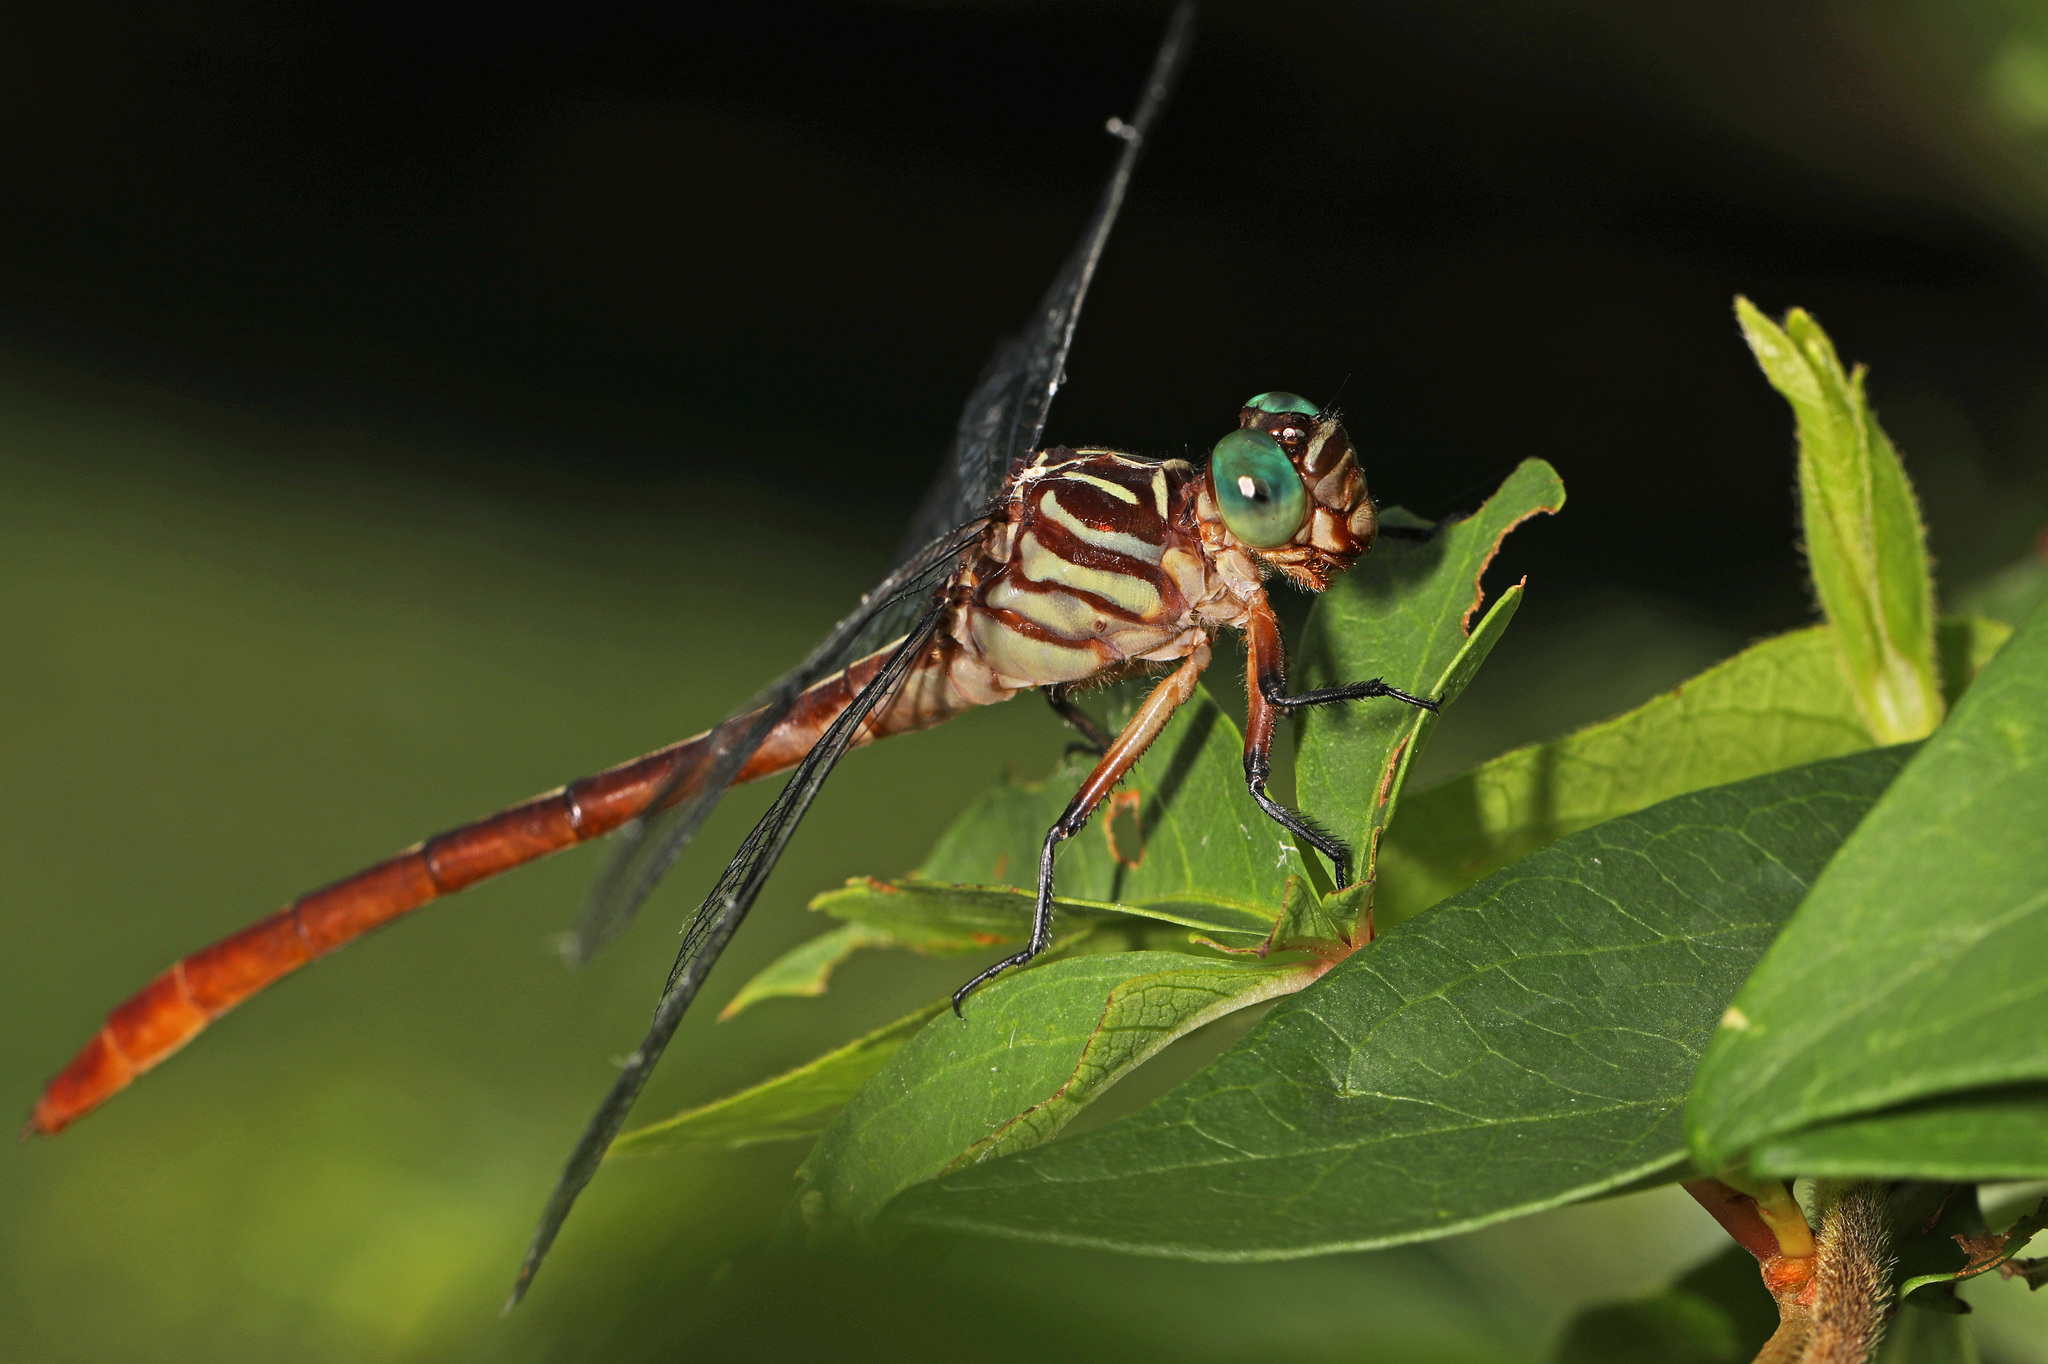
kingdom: Animalia
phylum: Arthropoda
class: Insecta
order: Odonata
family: Gomphidae
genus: Stylurus
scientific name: Stylurus plagiatus
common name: Russet-tipped clubtail
